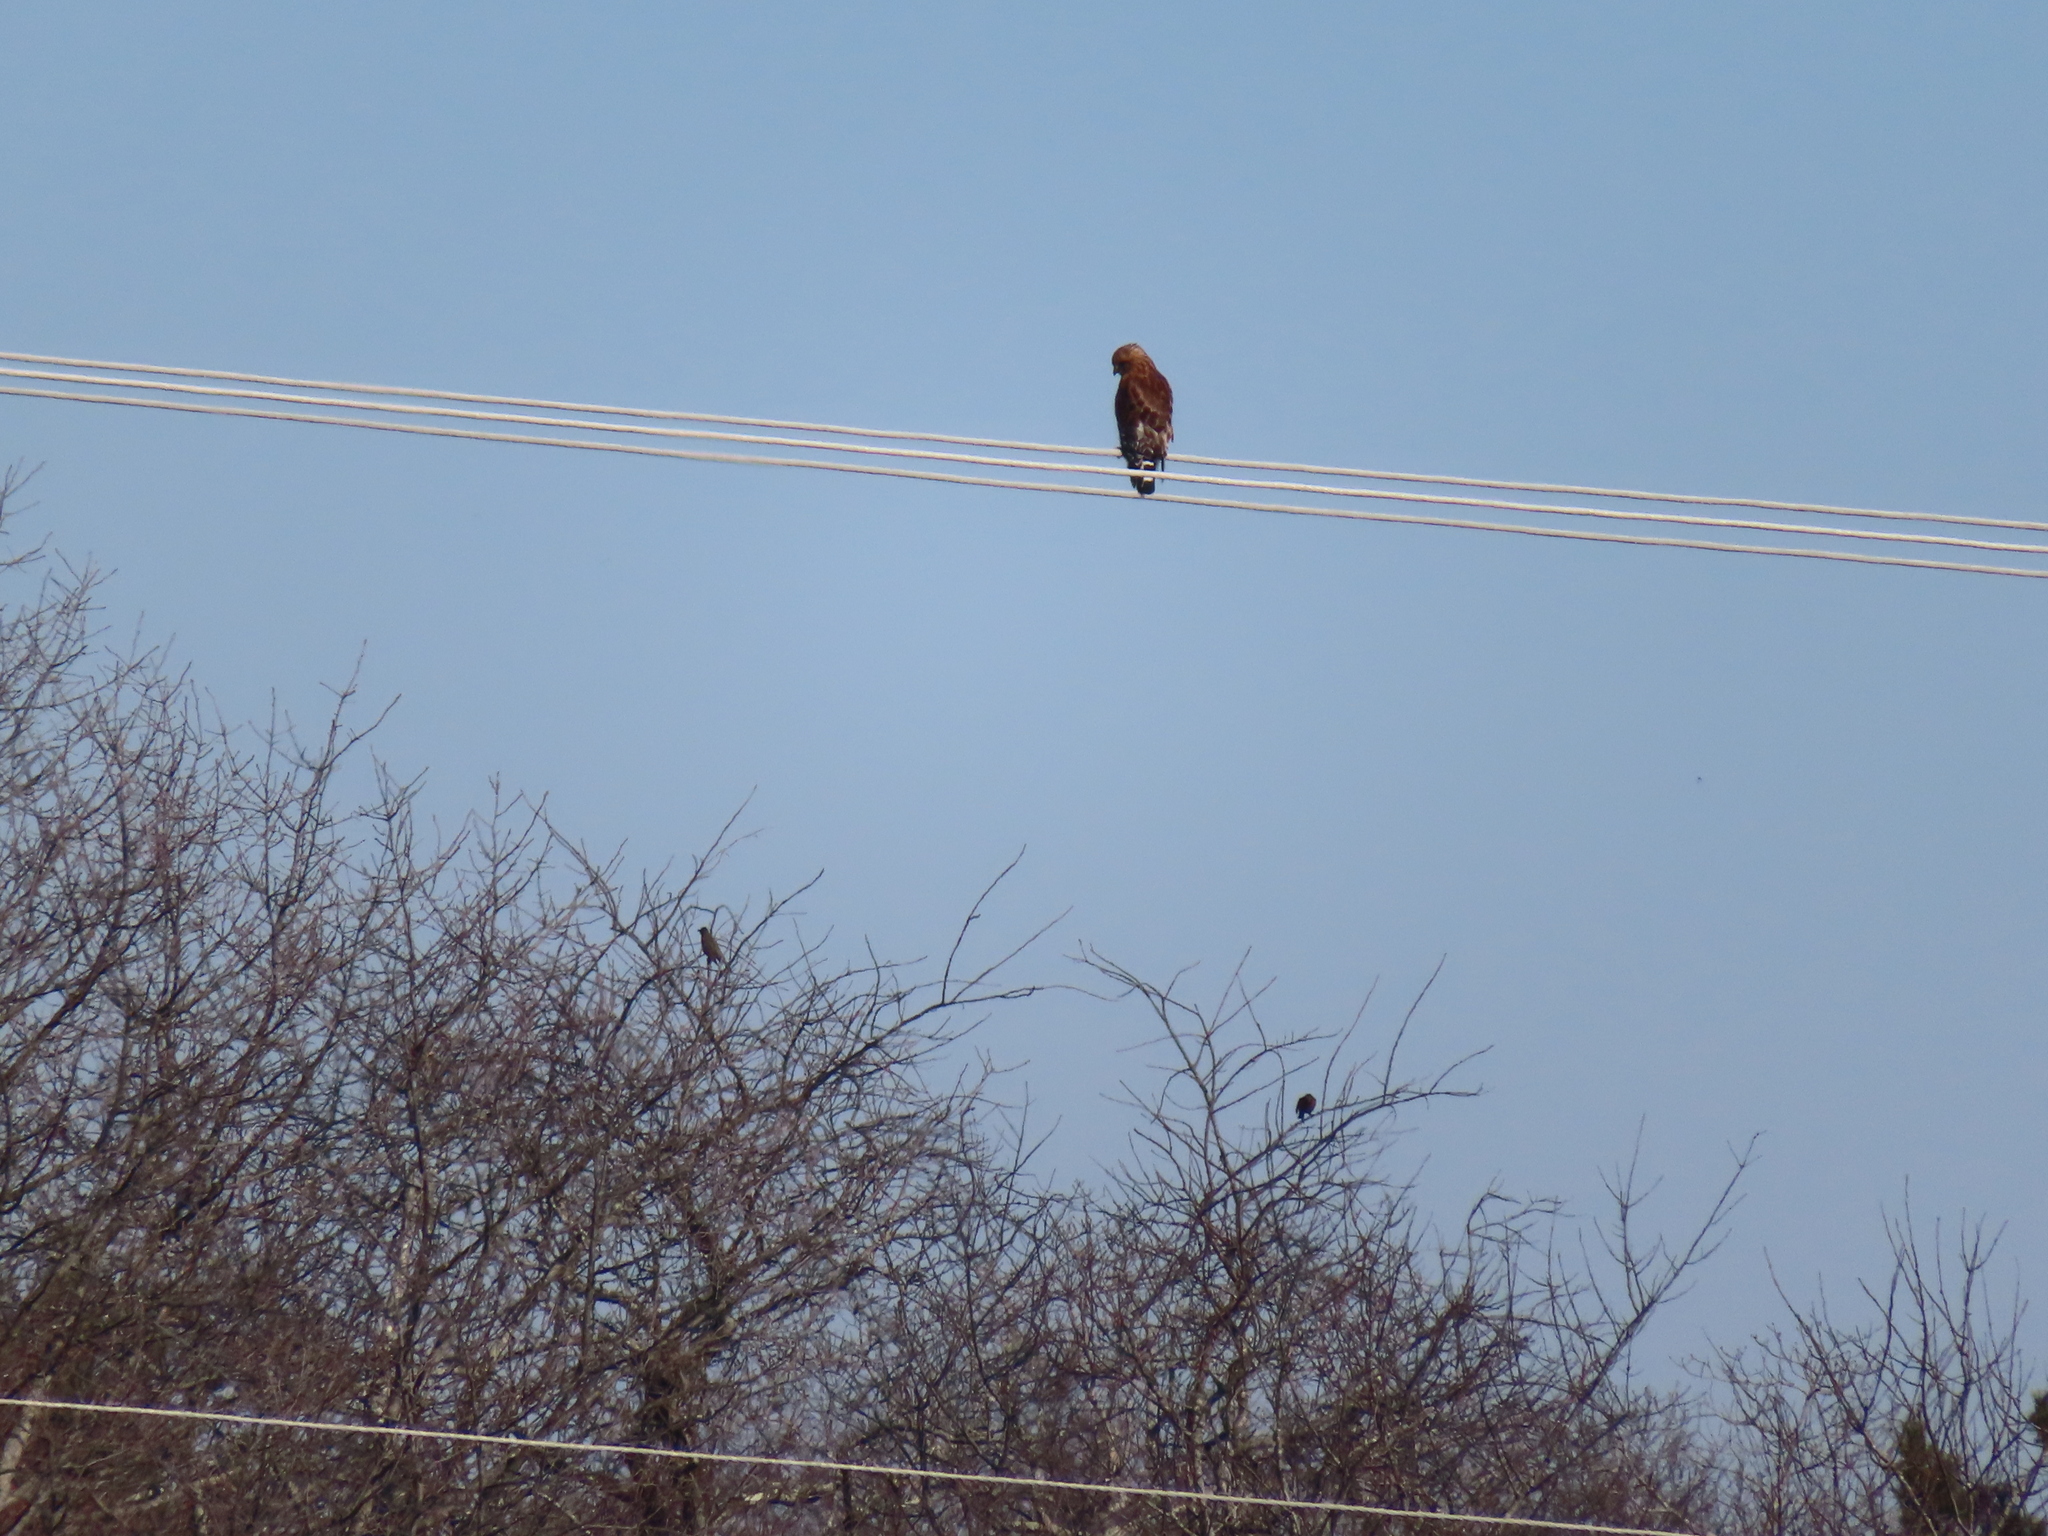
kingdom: Animalia
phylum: Chordata
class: Aves
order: Passeriformes
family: Turdidae
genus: Turdus
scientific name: Turdus migratorius
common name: American robin
